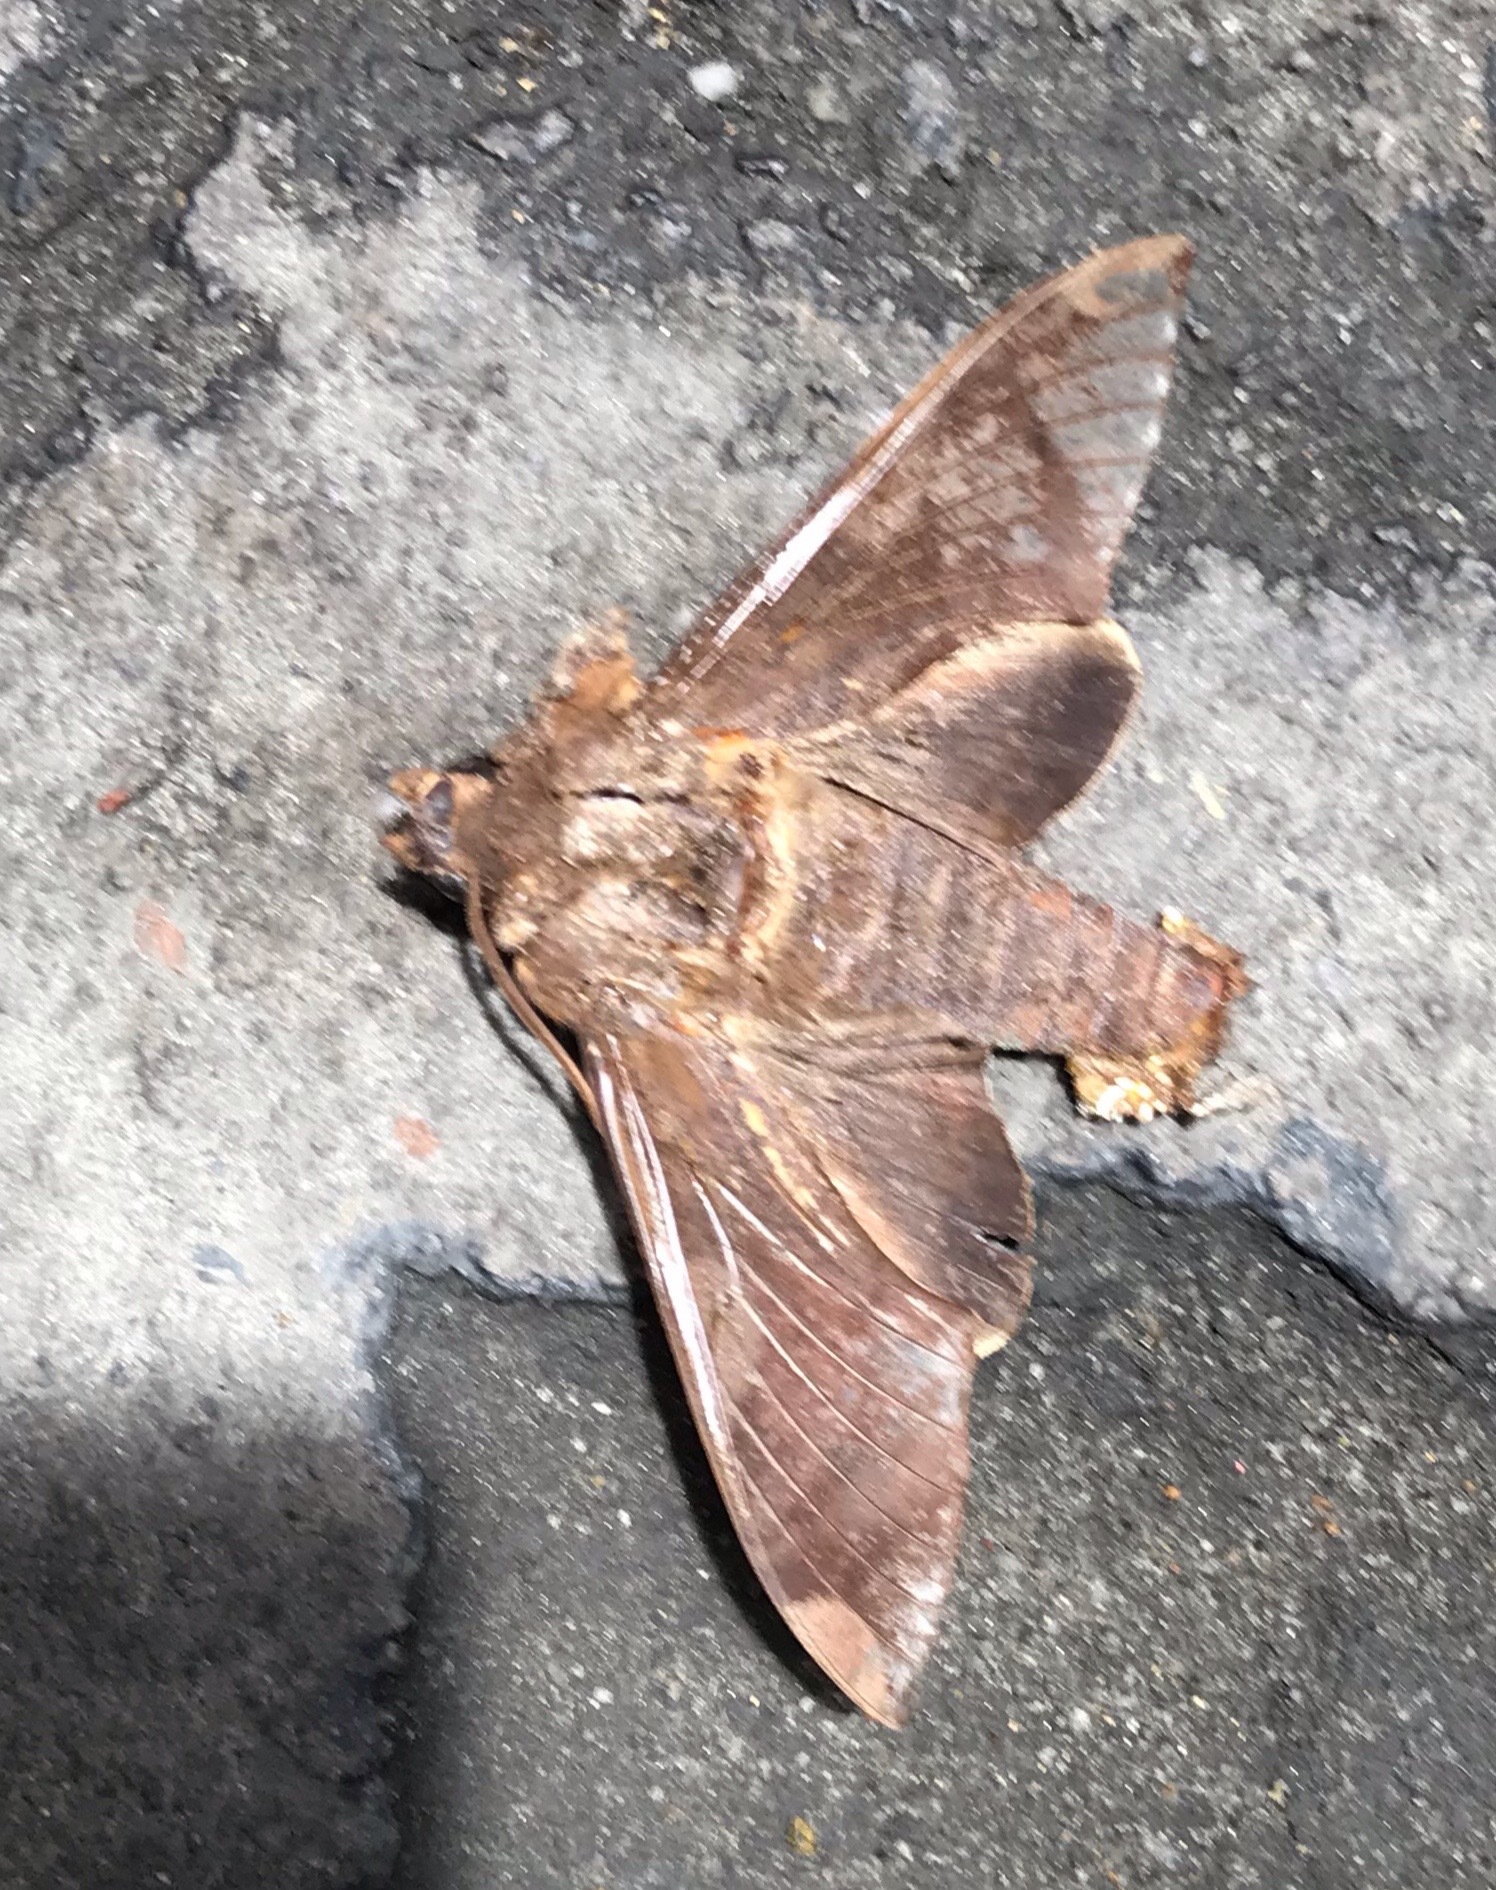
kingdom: Animalia
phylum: Arthropoda
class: Insecta
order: Lepidoptera
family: Sphingidae
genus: Pachylia
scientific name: Pachylia syces
